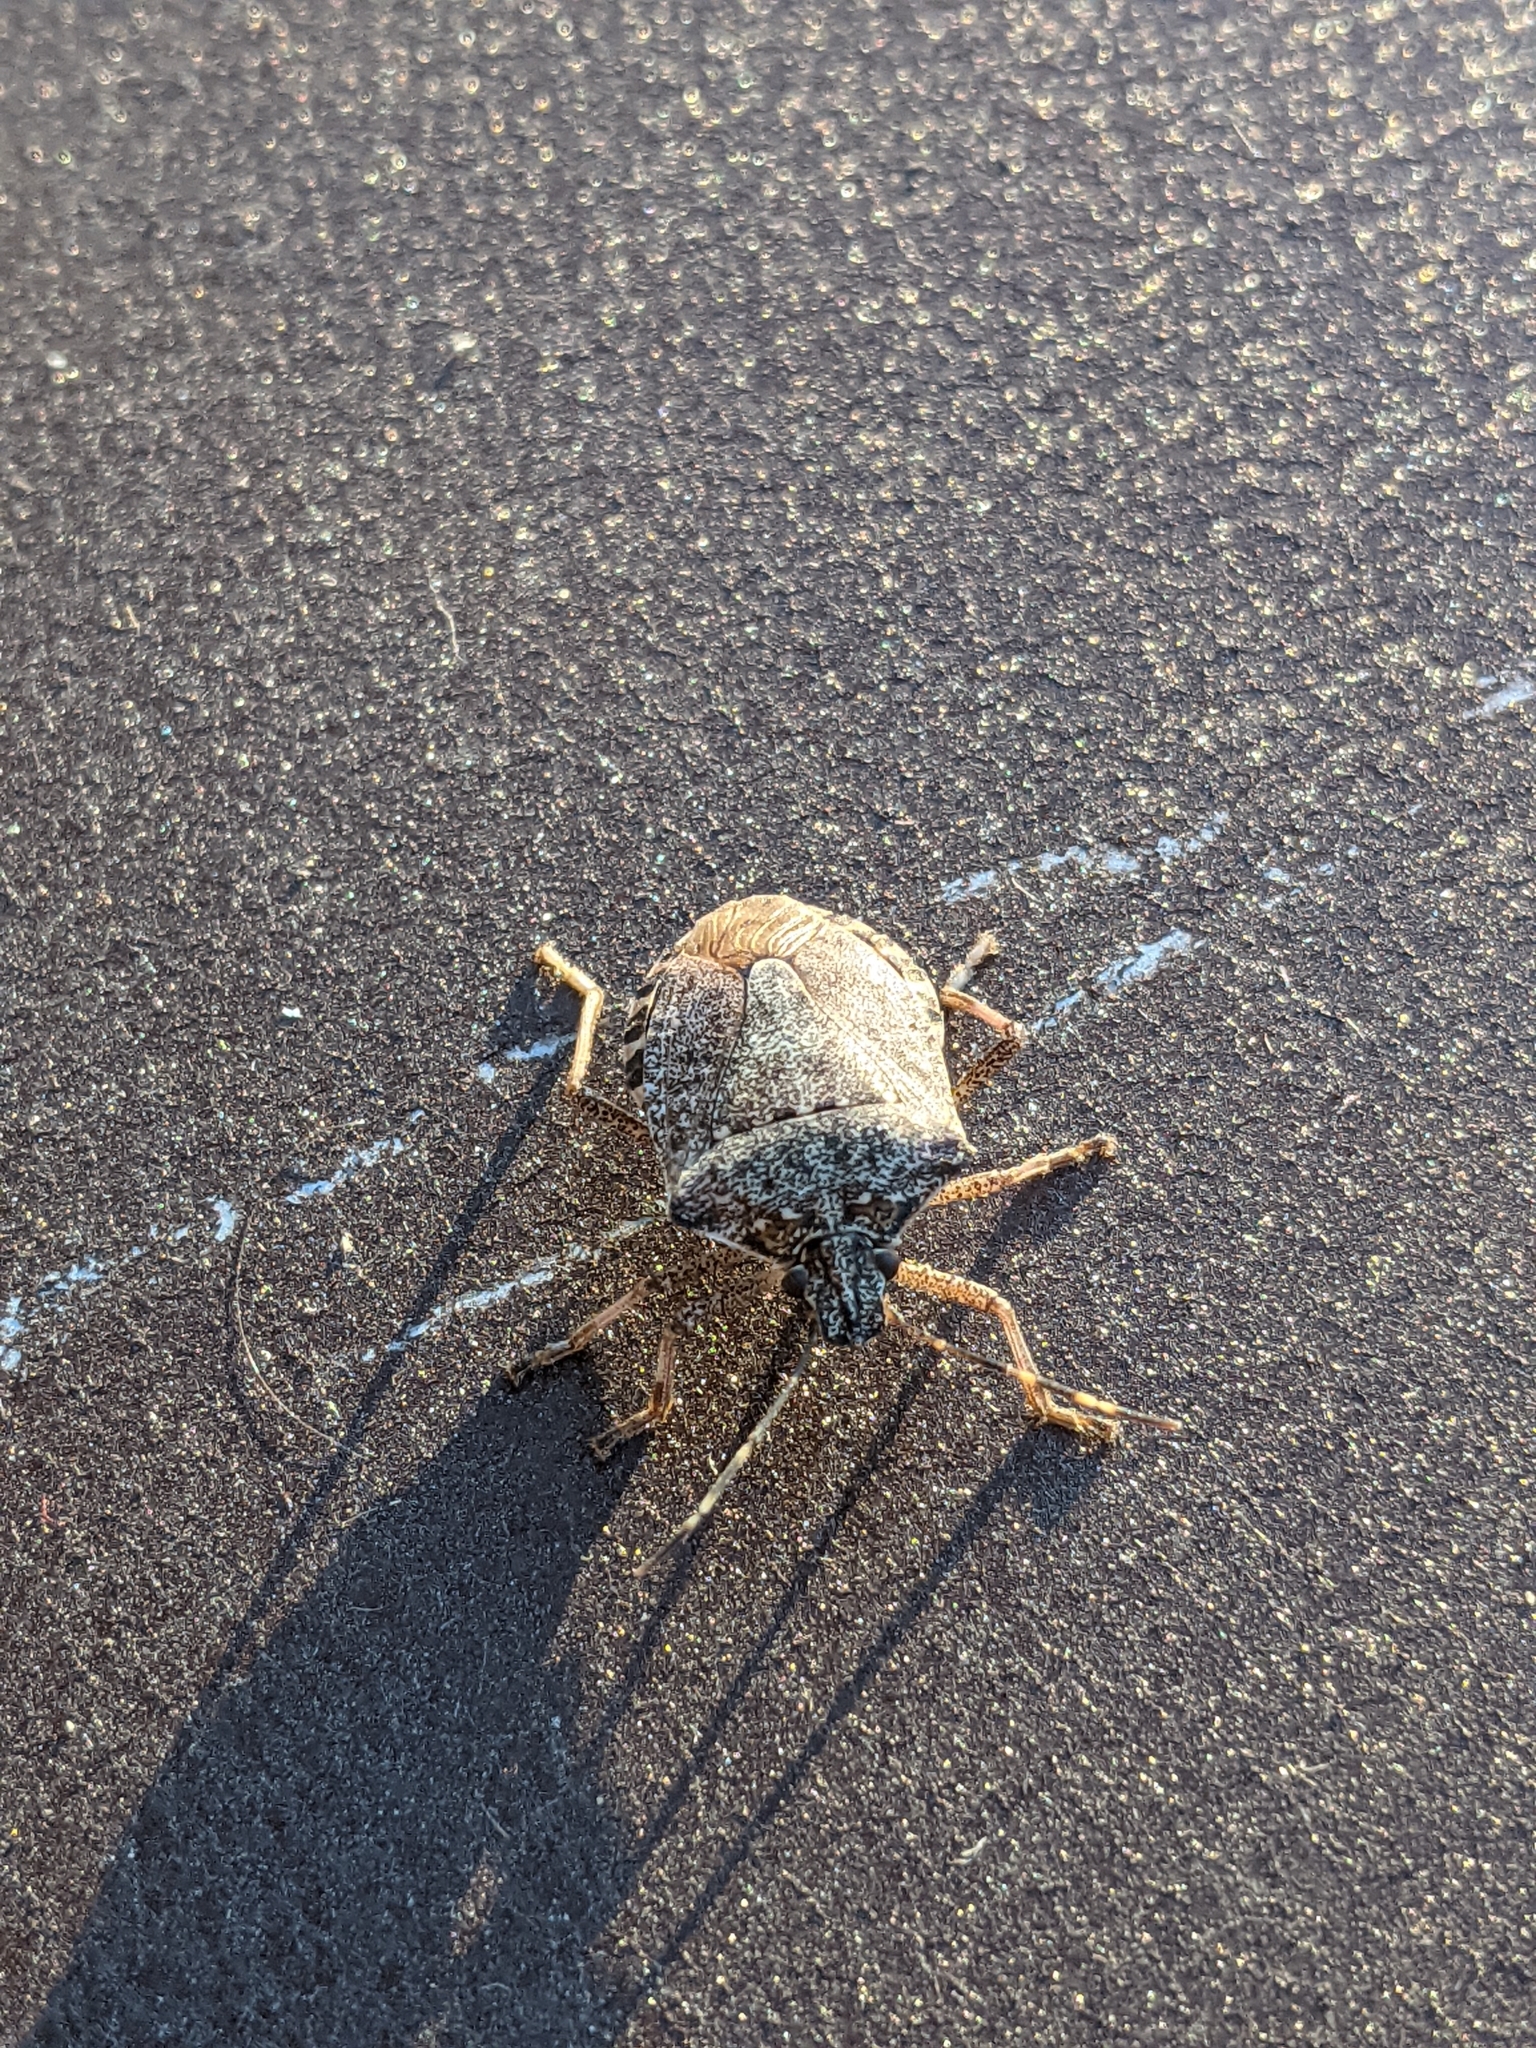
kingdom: Animalia
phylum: Arthropoda
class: Insecta
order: Hemiptera
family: Pentatomidae
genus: Halyomorpha
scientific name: Halyomorpha halys
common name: Brown marmorated stink bug
